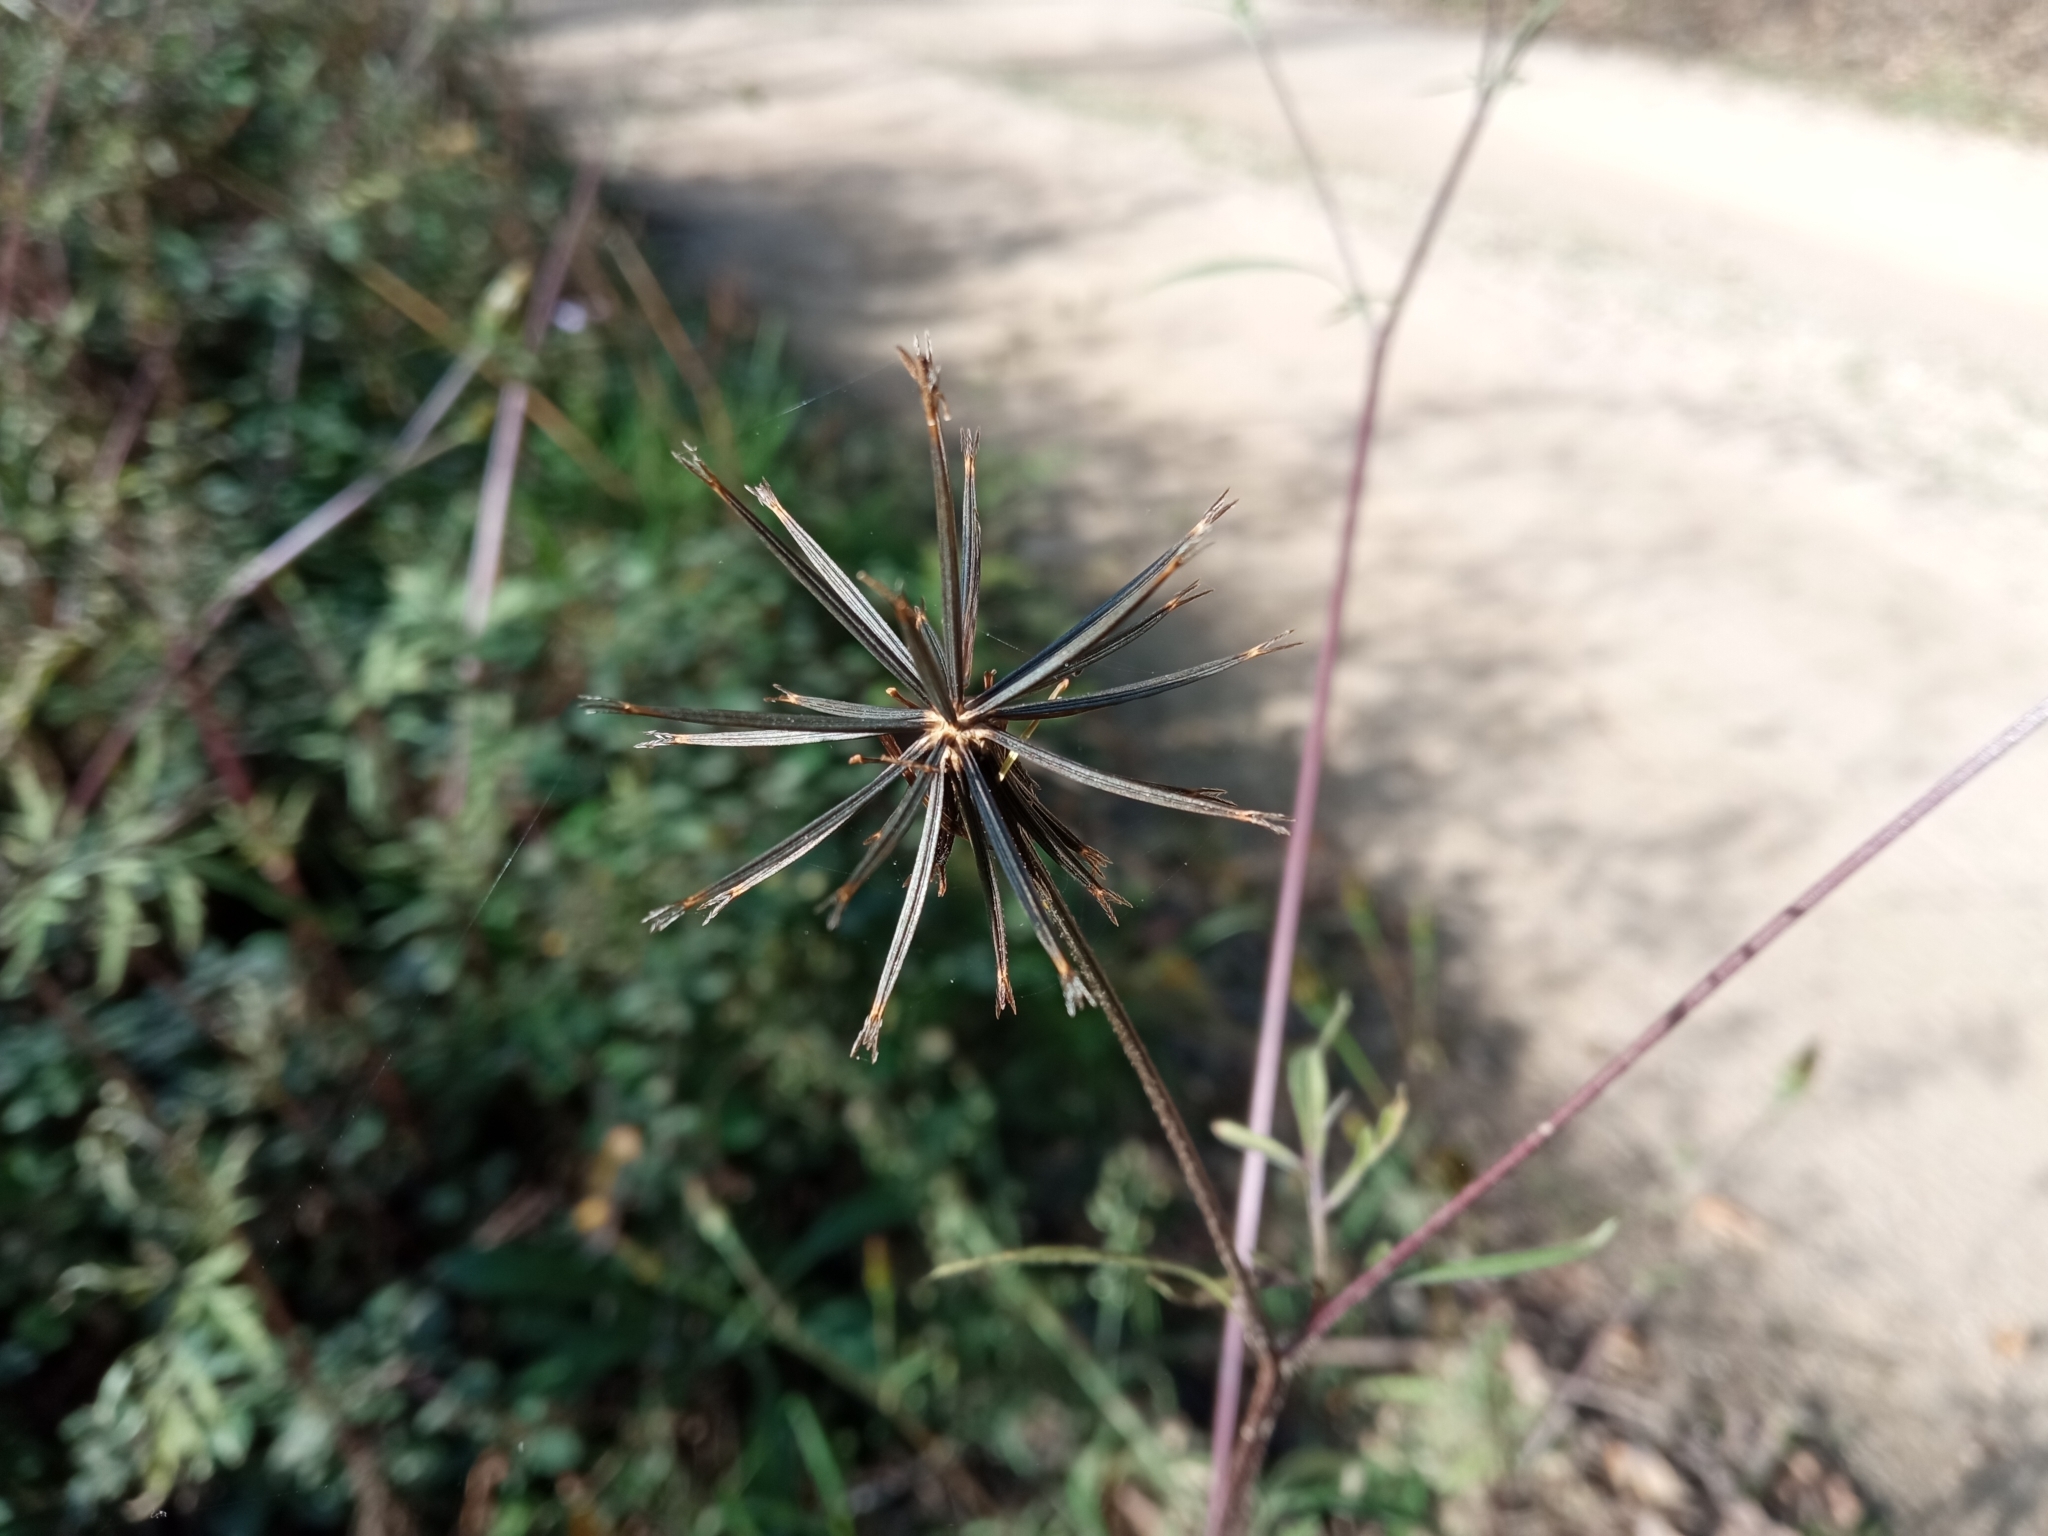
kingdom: Plantae
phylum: Tracheophyta
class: Magnoliopsida
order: Asterales
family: Asteraceae
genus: Bidens
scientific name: Bidens subalternans
